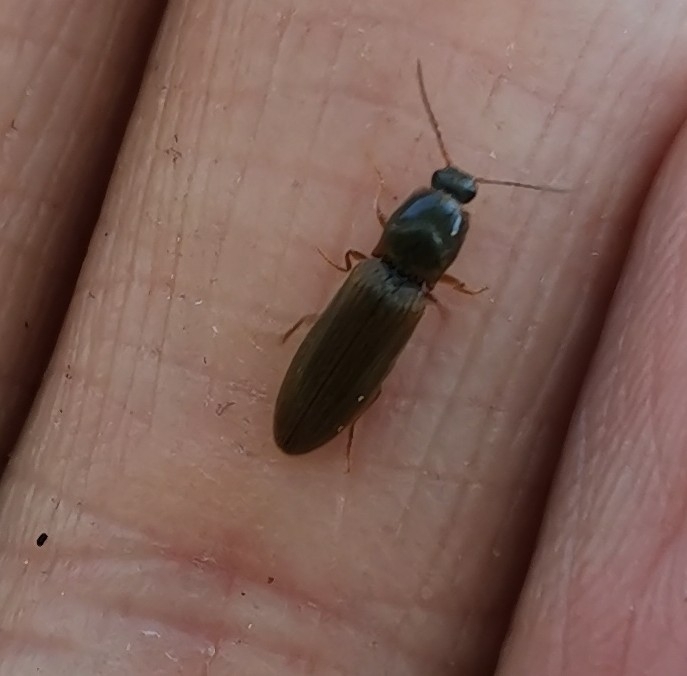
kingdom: Animalia
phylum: Arthropoda
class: Insecta
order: Coleoptera
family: Elateridae
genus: Athous
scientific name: Athous subfuscus
